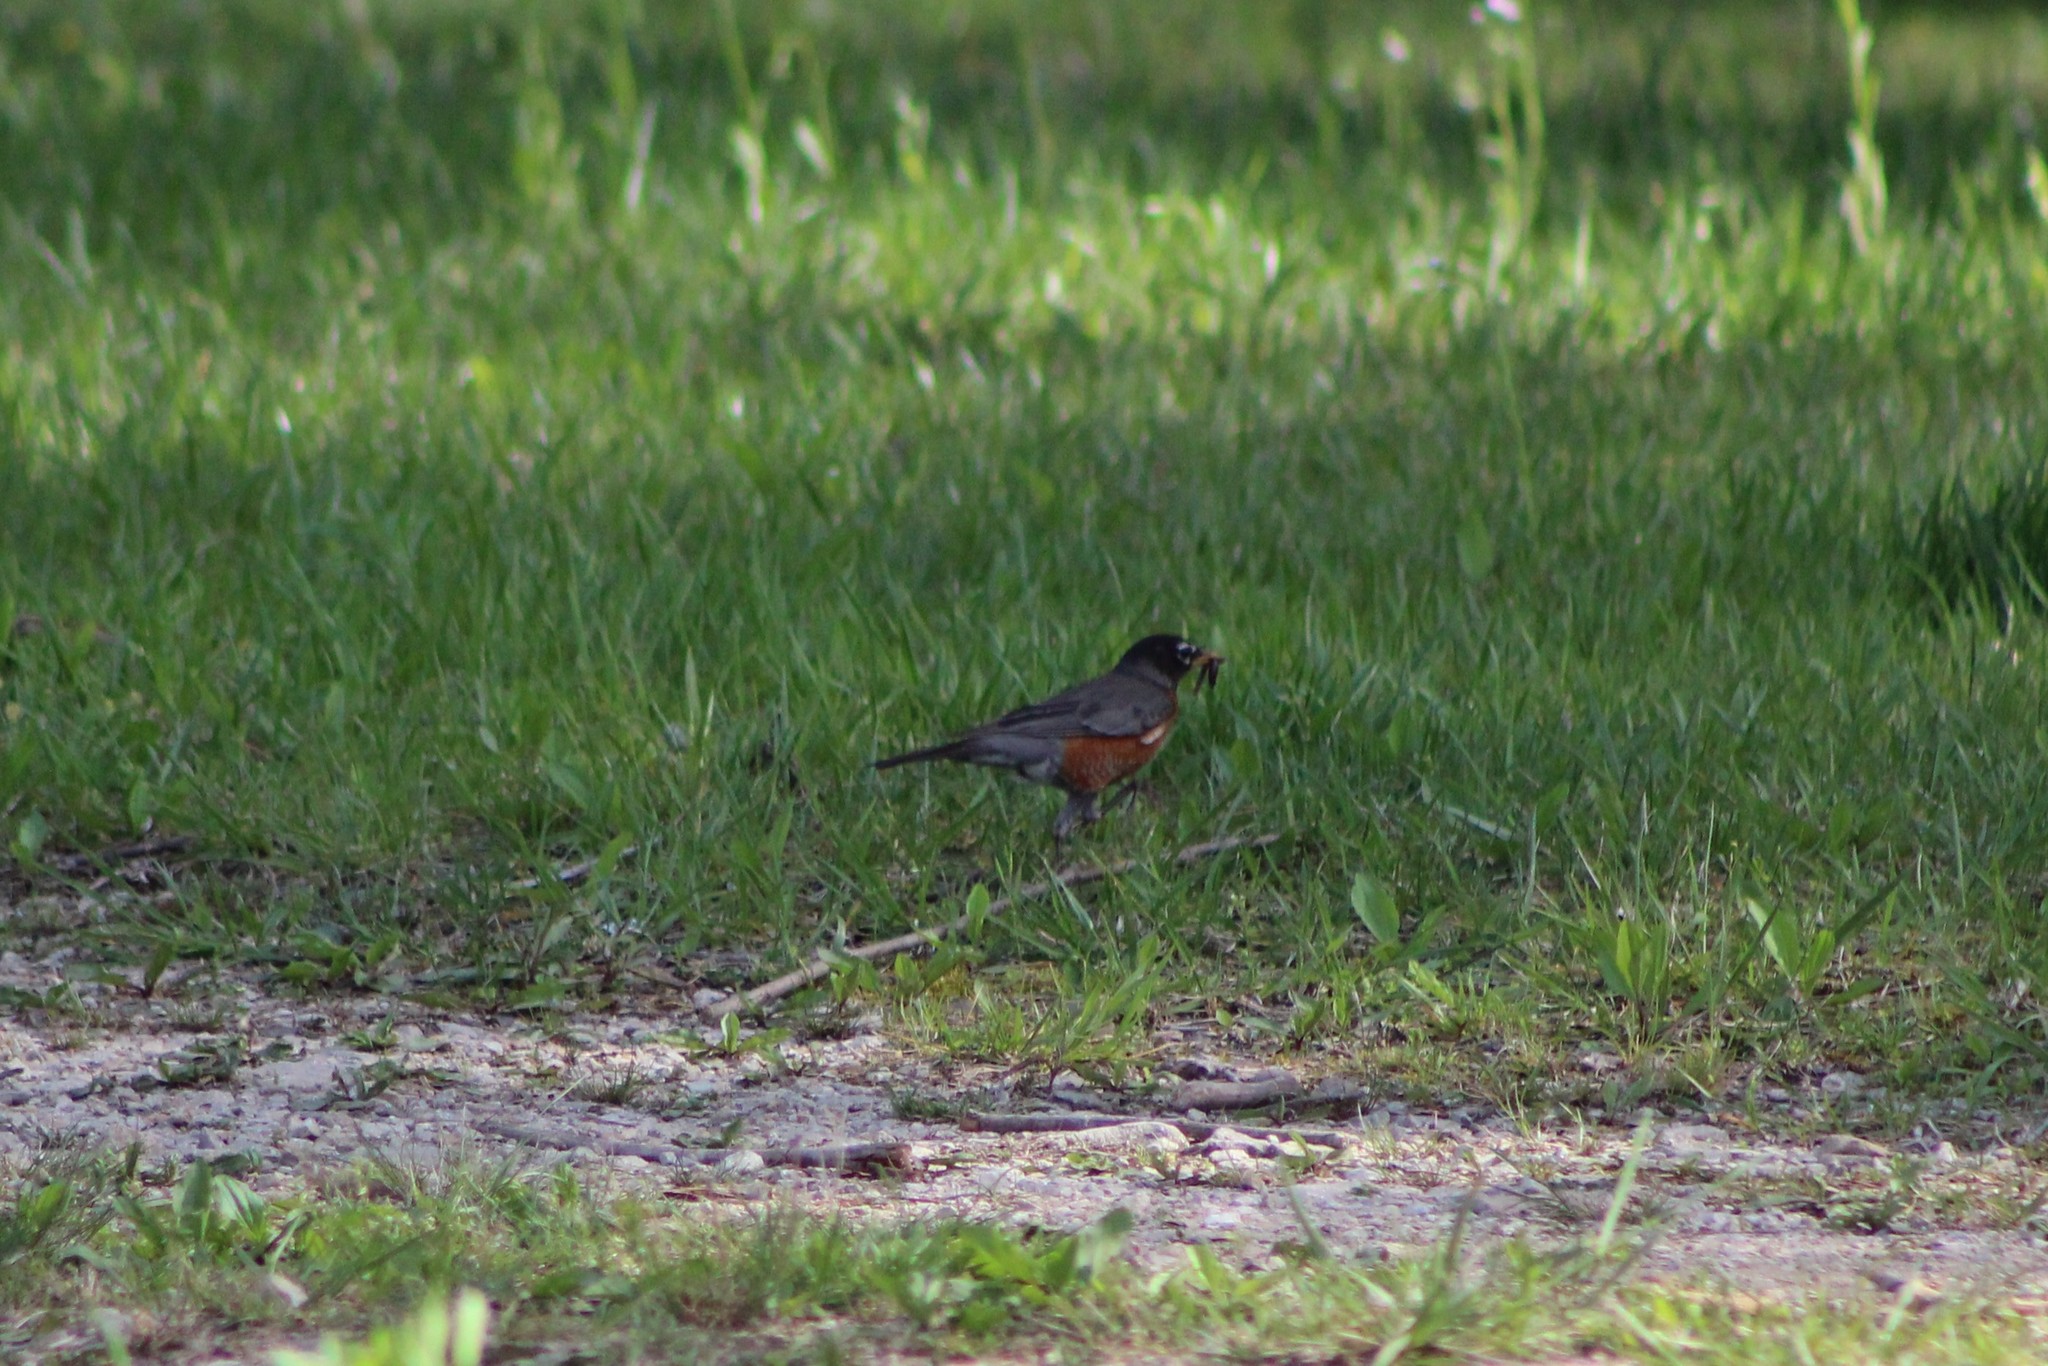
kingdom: Animalia
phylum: Chordata
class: Aves
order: Passeriformes
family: Turdidae
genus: Turdus
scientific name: Turdus migratorius
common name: American robin
